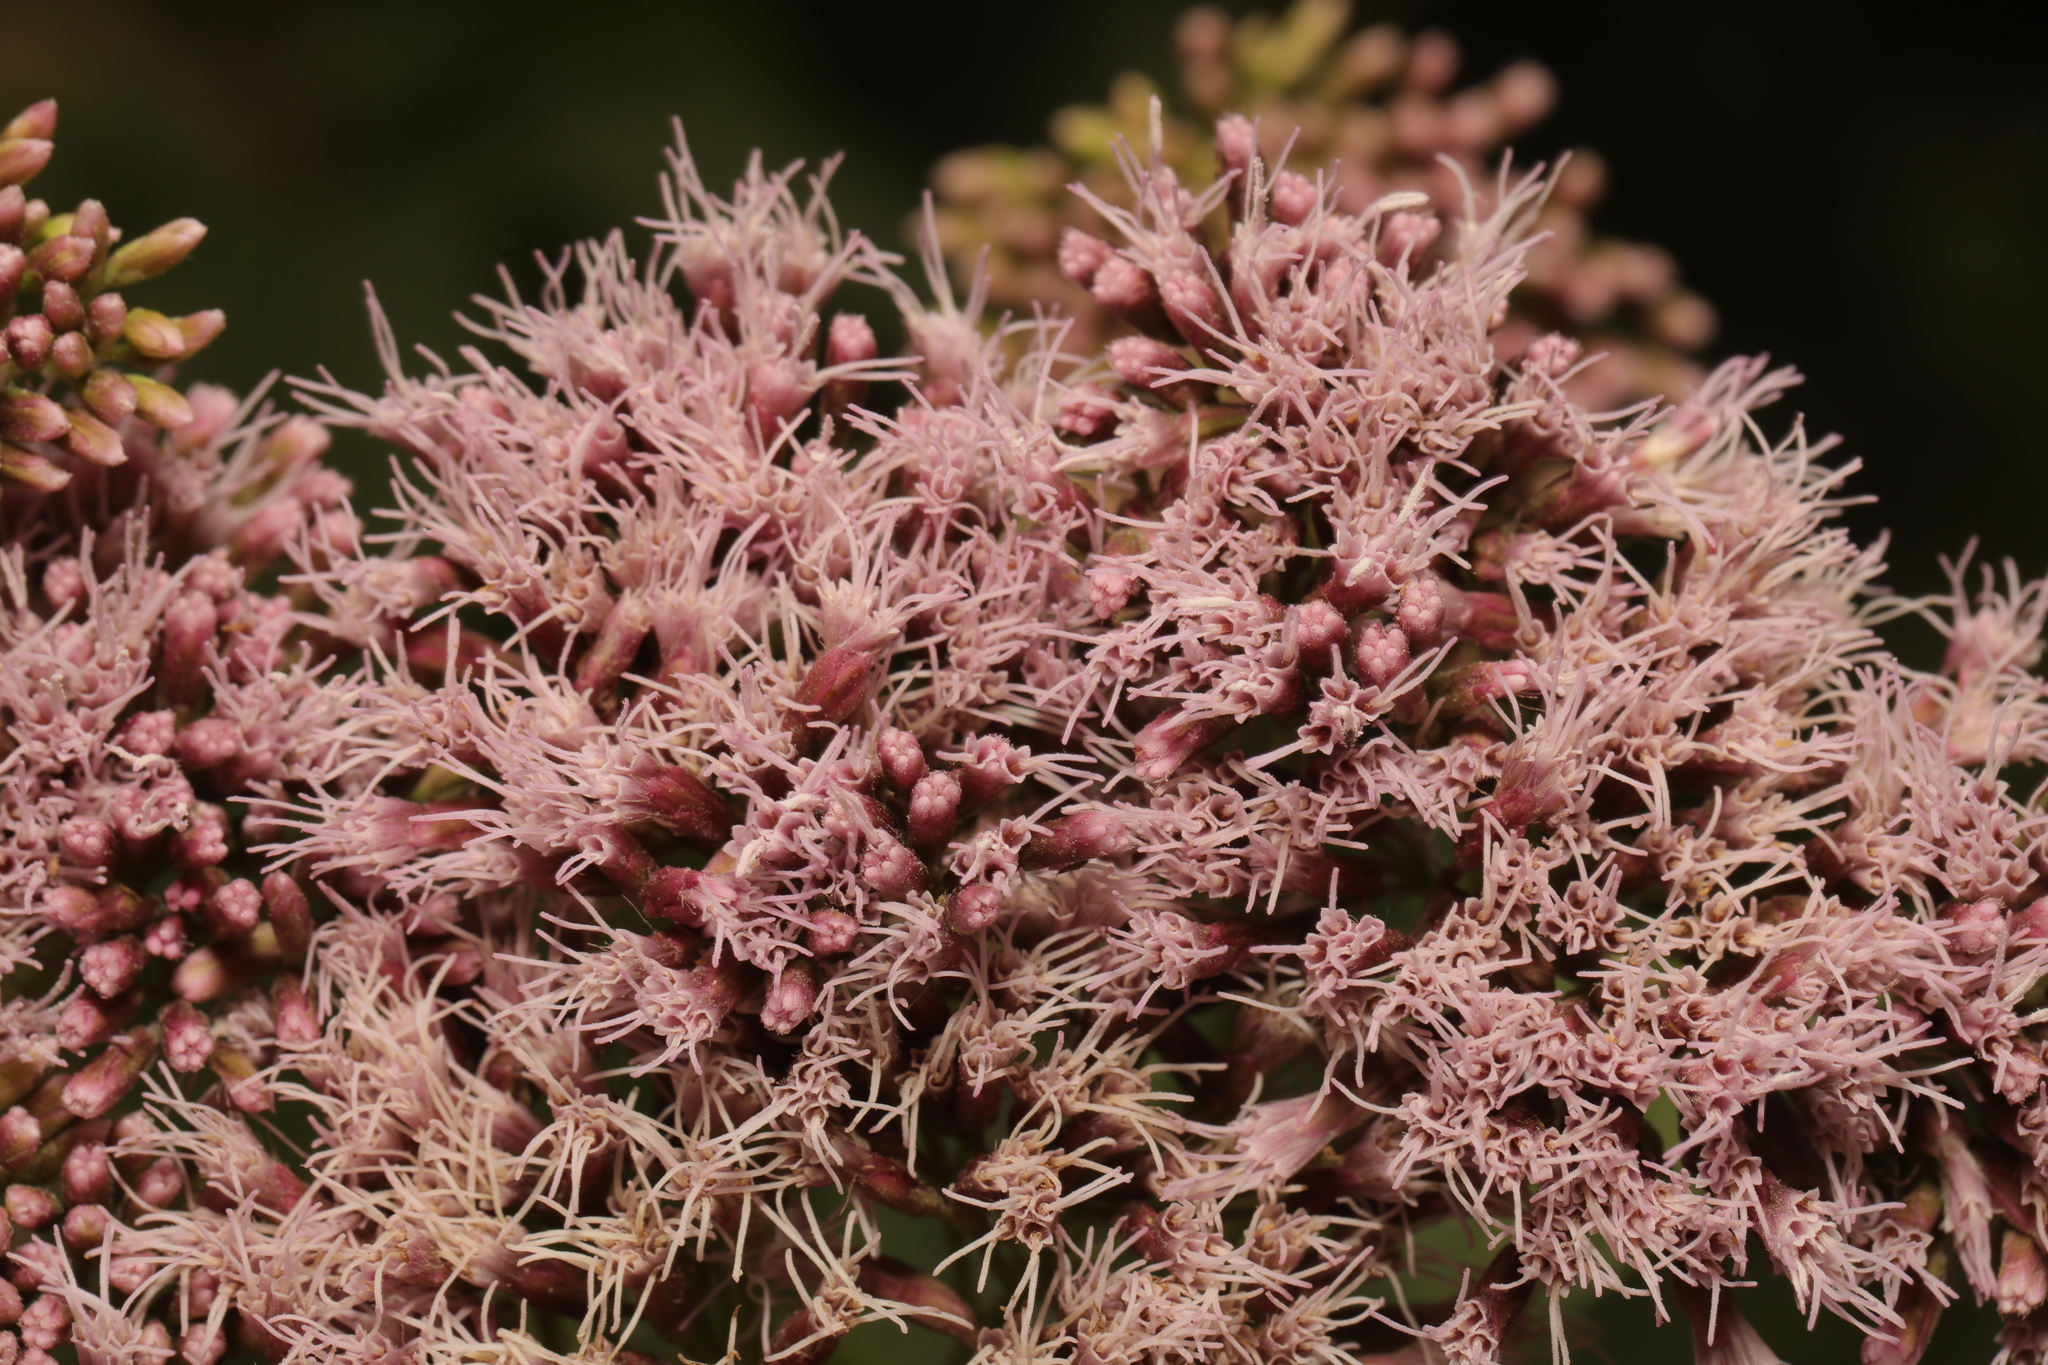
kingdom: Plantae
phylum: Tracheophyta
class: Magnoliopsida
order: Asterales
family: Asteraceae
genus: Eupatorium
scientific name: Eupatorium cannabinum
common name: Hemp-agrimony
